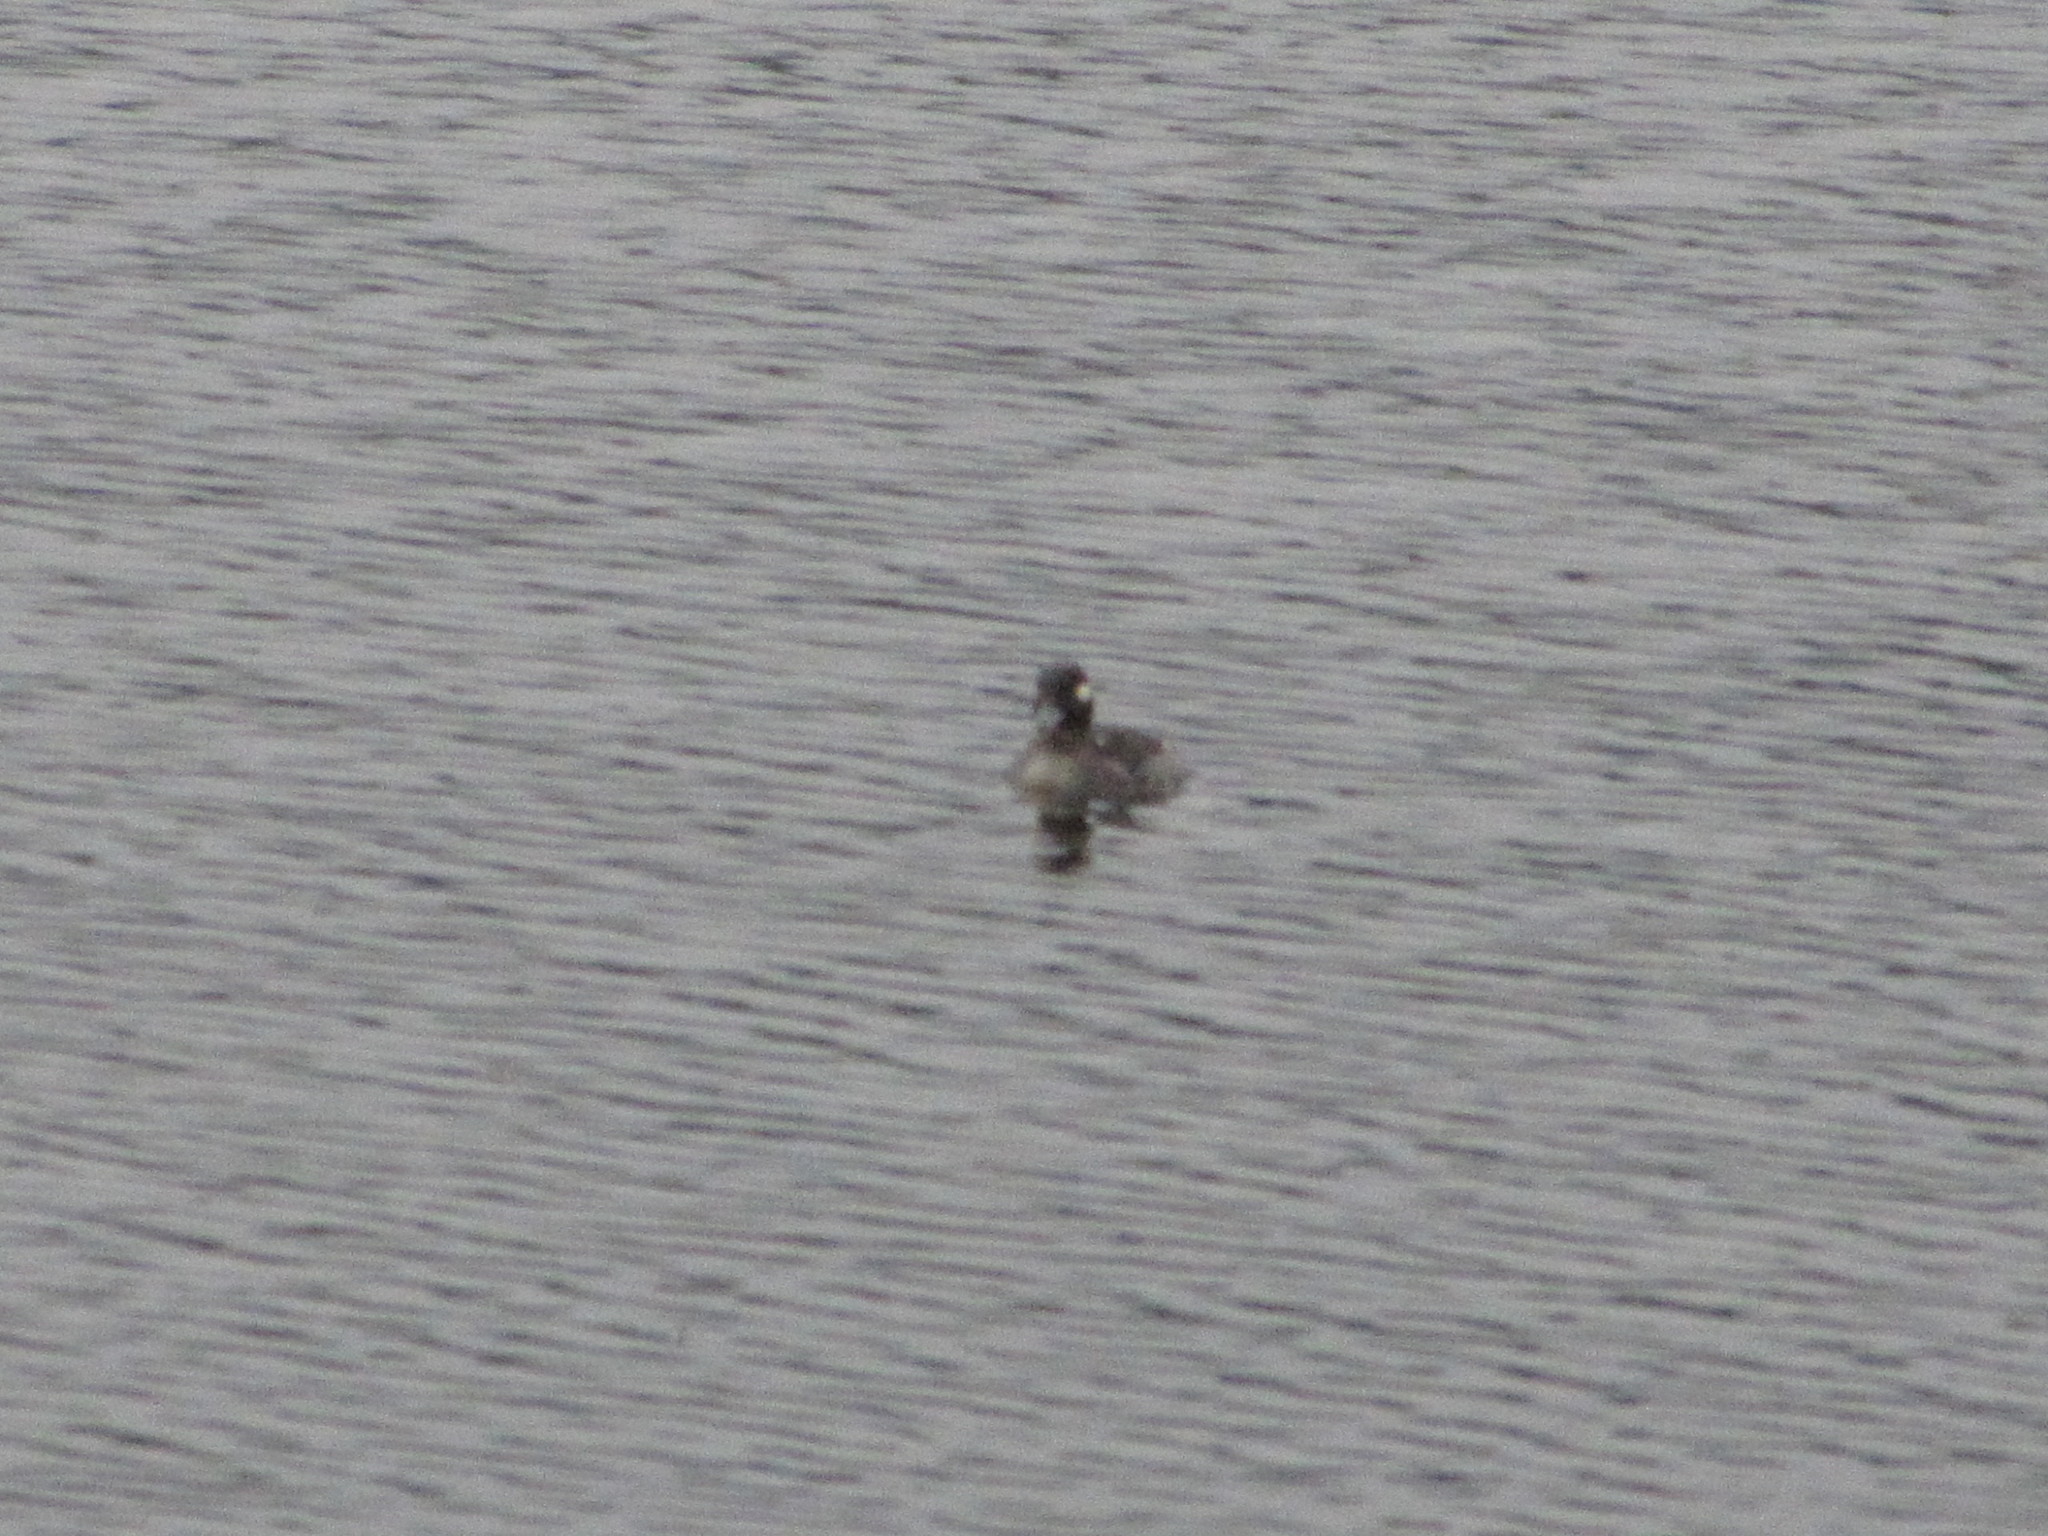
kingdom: Animalia
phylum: Chordata
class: Aves
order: Anseriformes
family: Anatidae
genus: Bucephala
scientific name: Bucephala albeola
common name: Bufflehead
